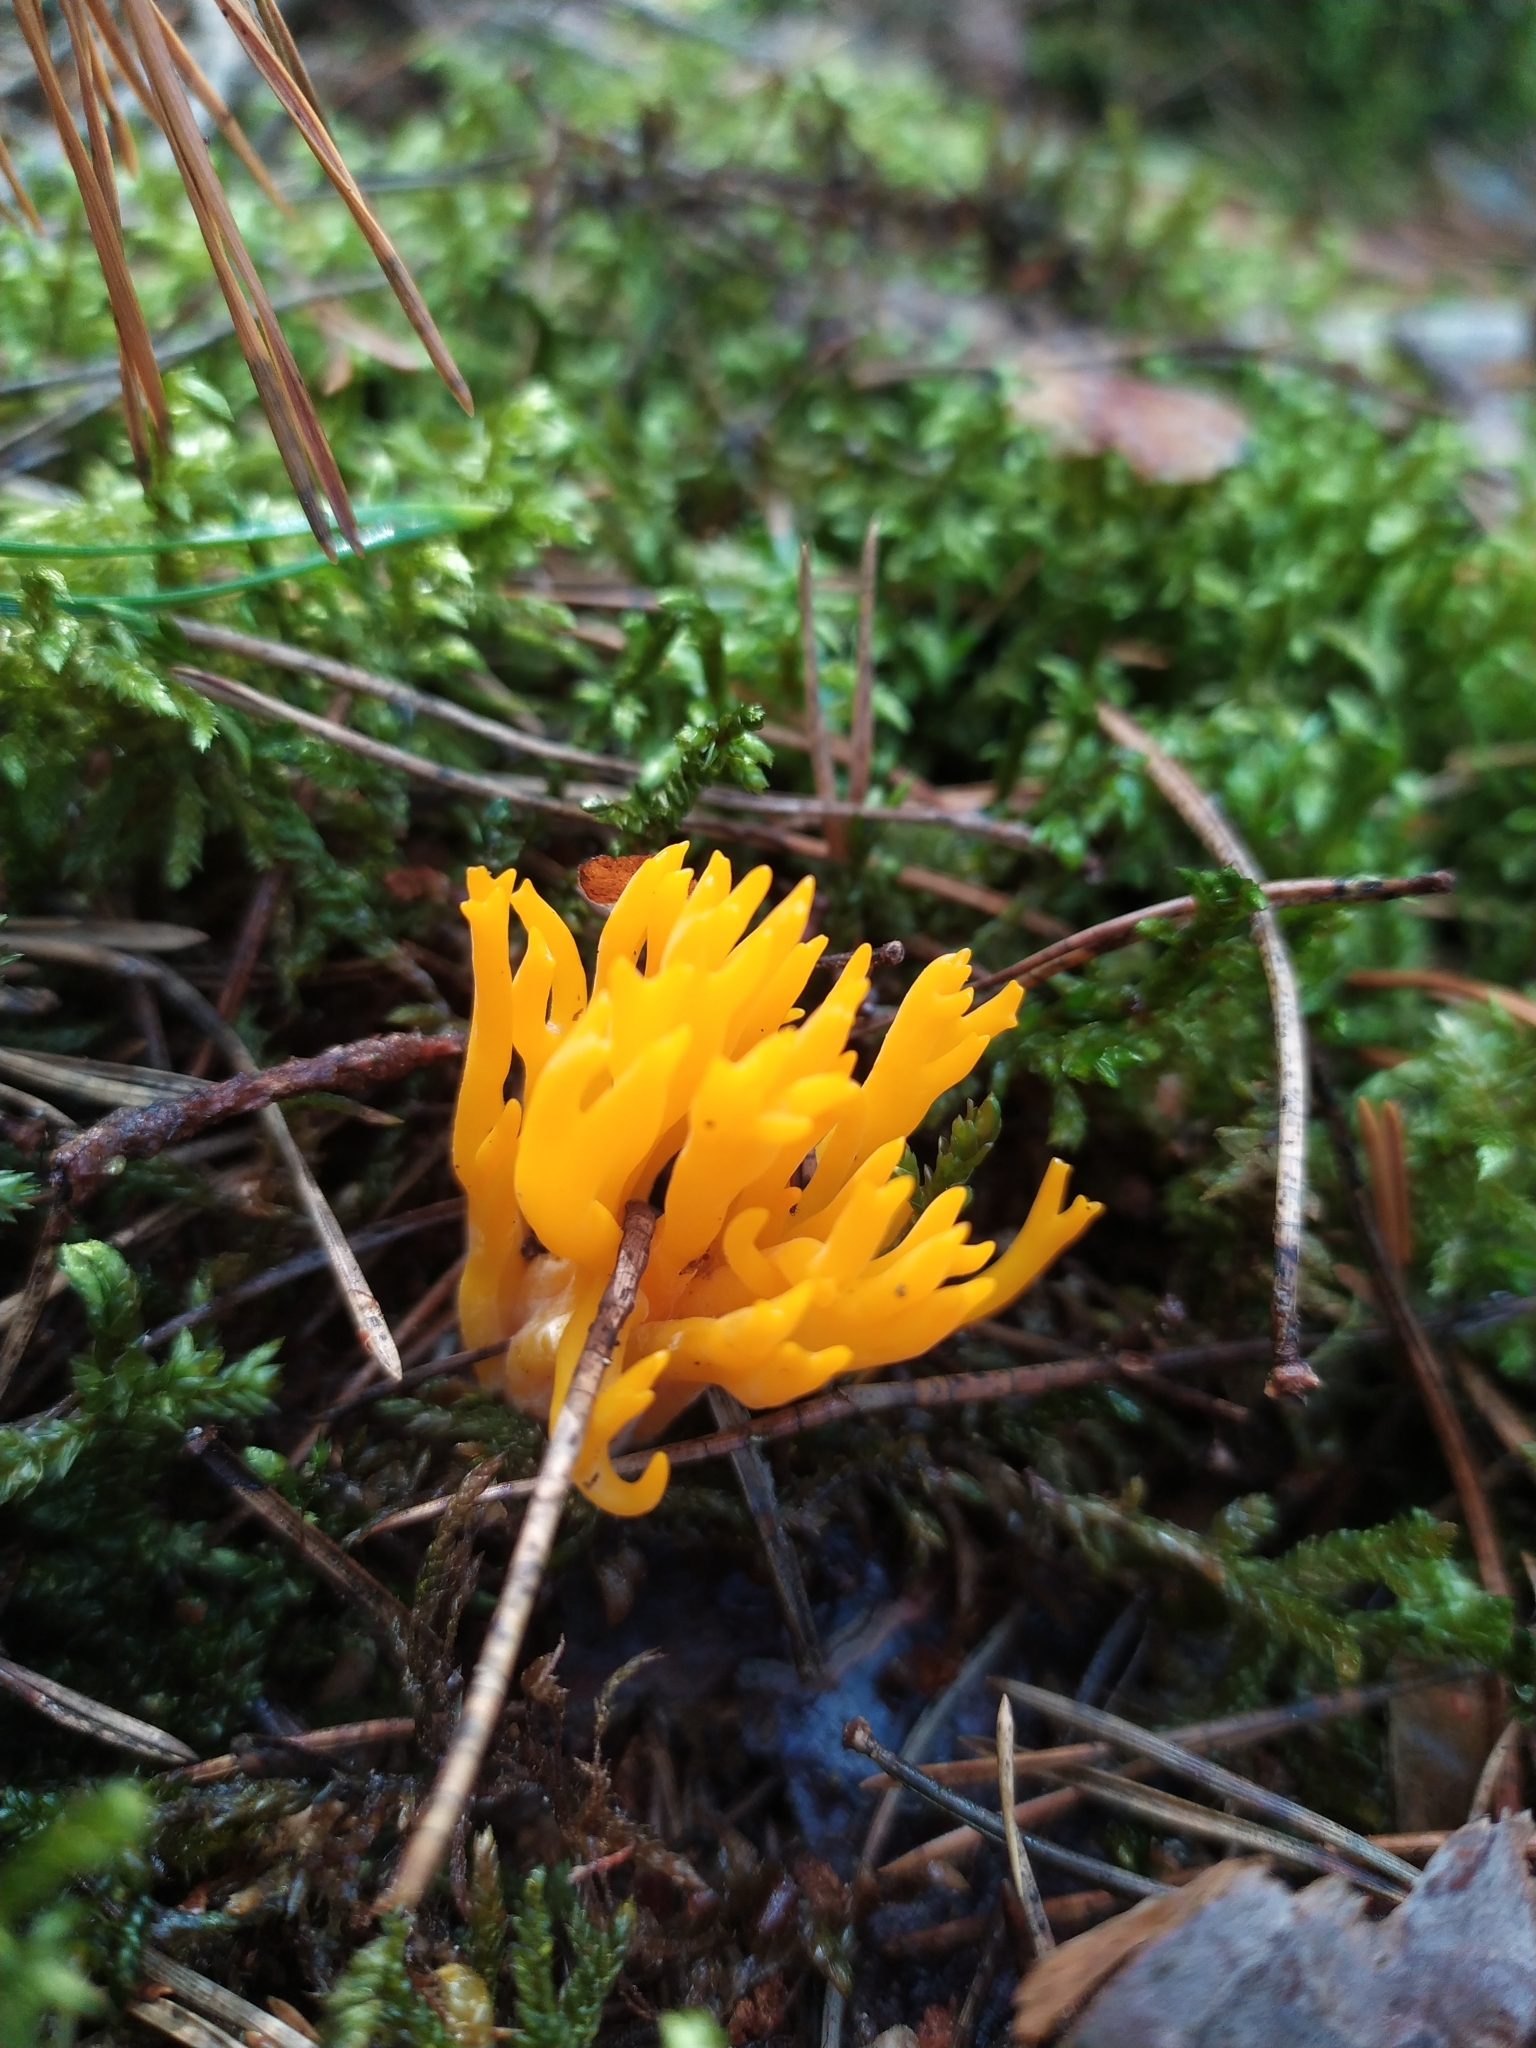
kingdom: Fungi
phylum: Basidiomycota
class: Dacrymycetes
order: Dacrymycetales
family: Dacrymycetaceae
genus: Calocera
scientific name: Calocera viscosa
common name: Yellow stagshorn
